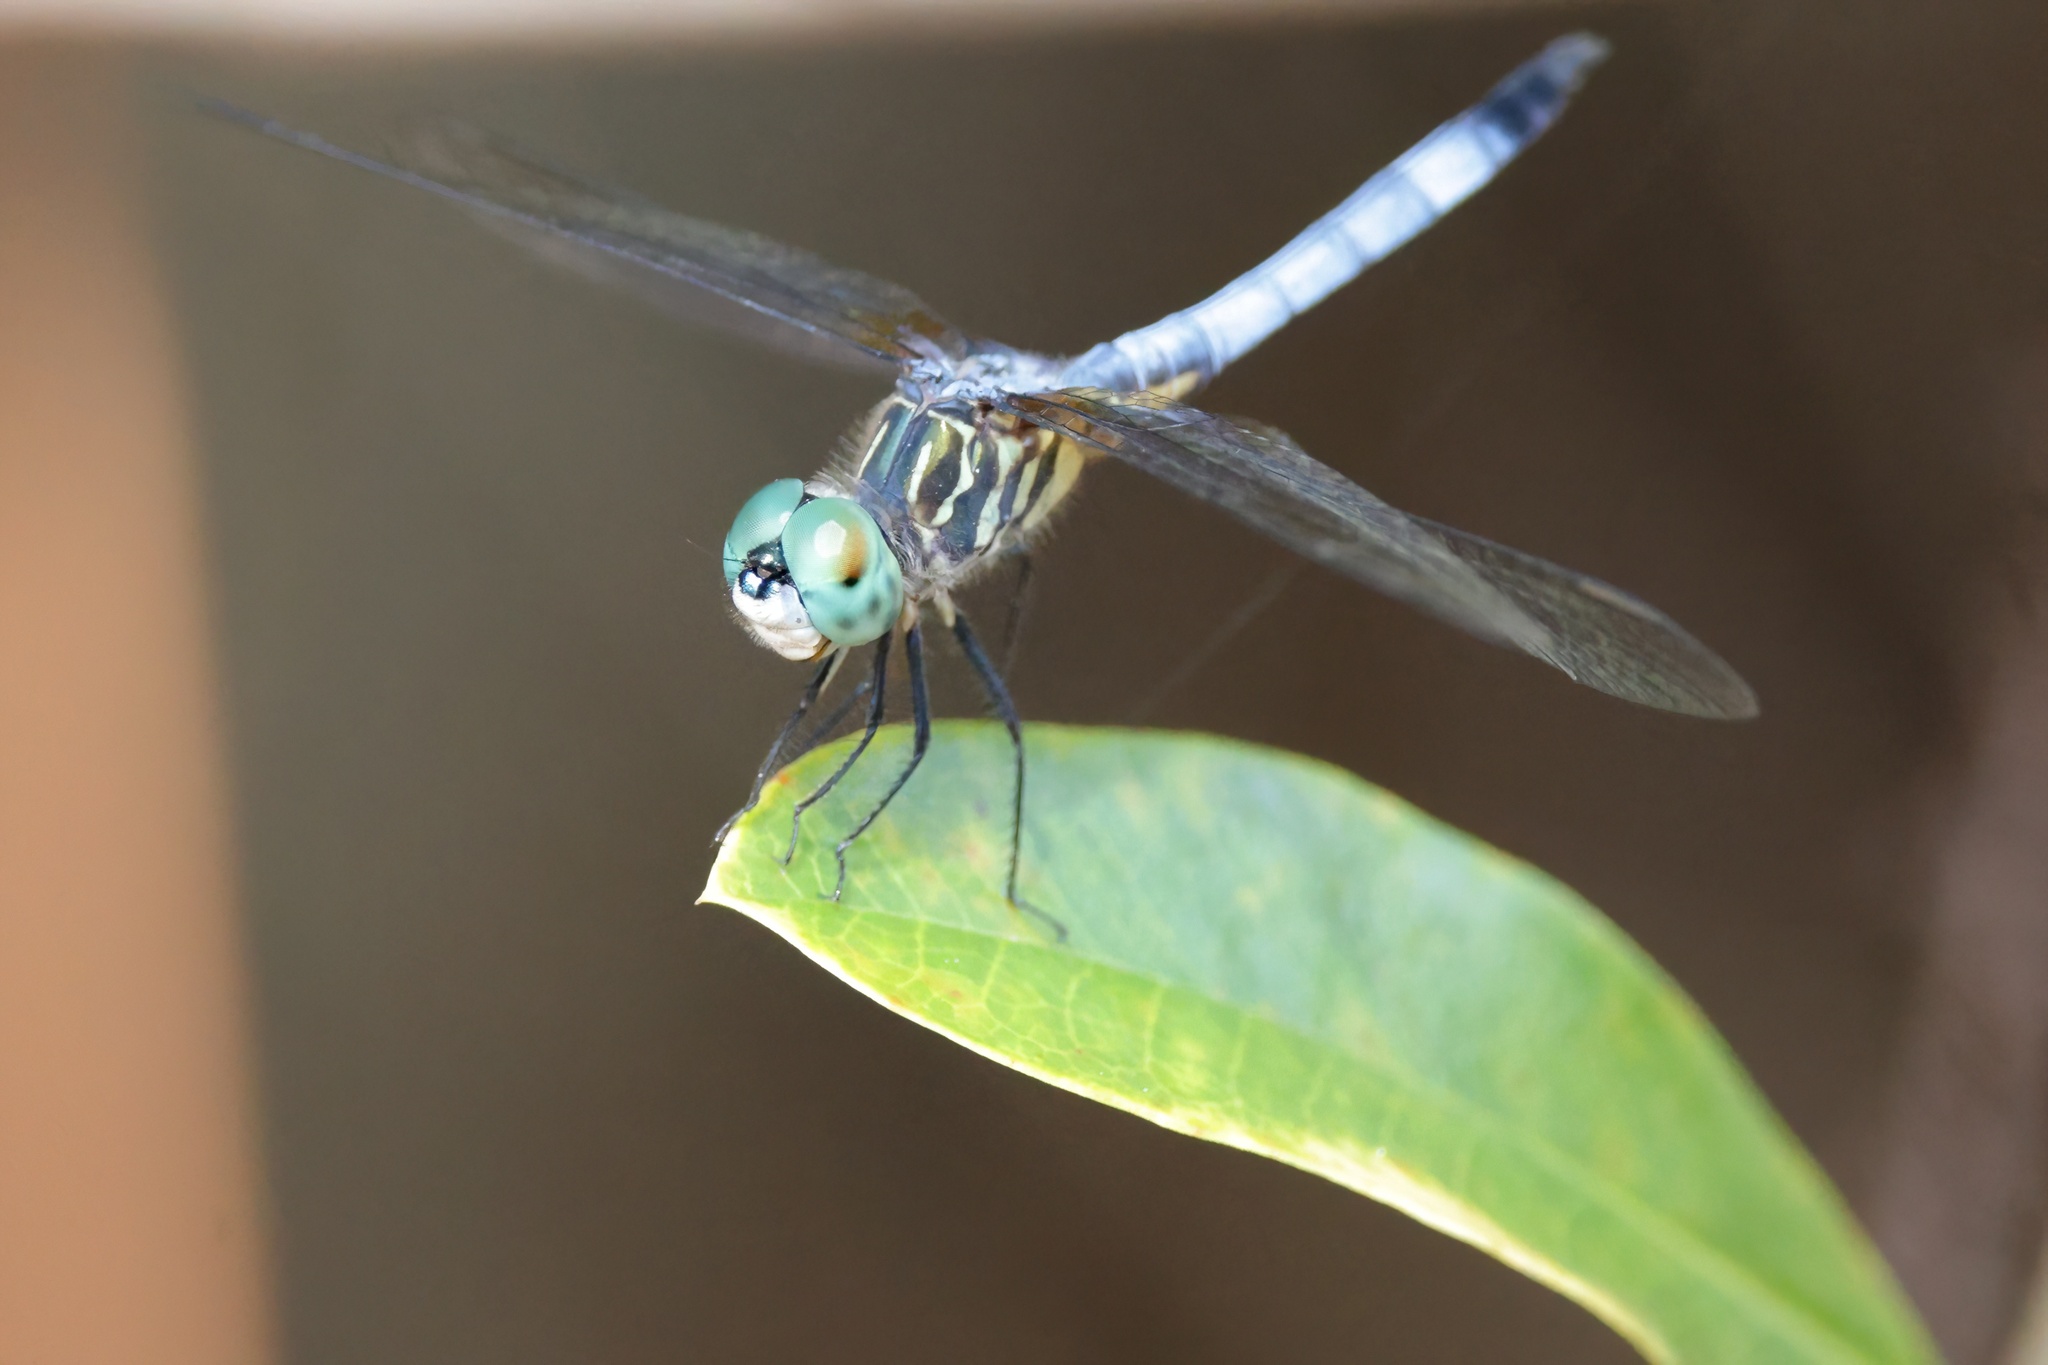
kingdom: Animalia
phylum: Arthropoda
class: Insecta
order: Odonata
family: Libellulidae
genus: Pachydiplax
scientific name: Pachydiplax longipennis
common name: Blue dasher
